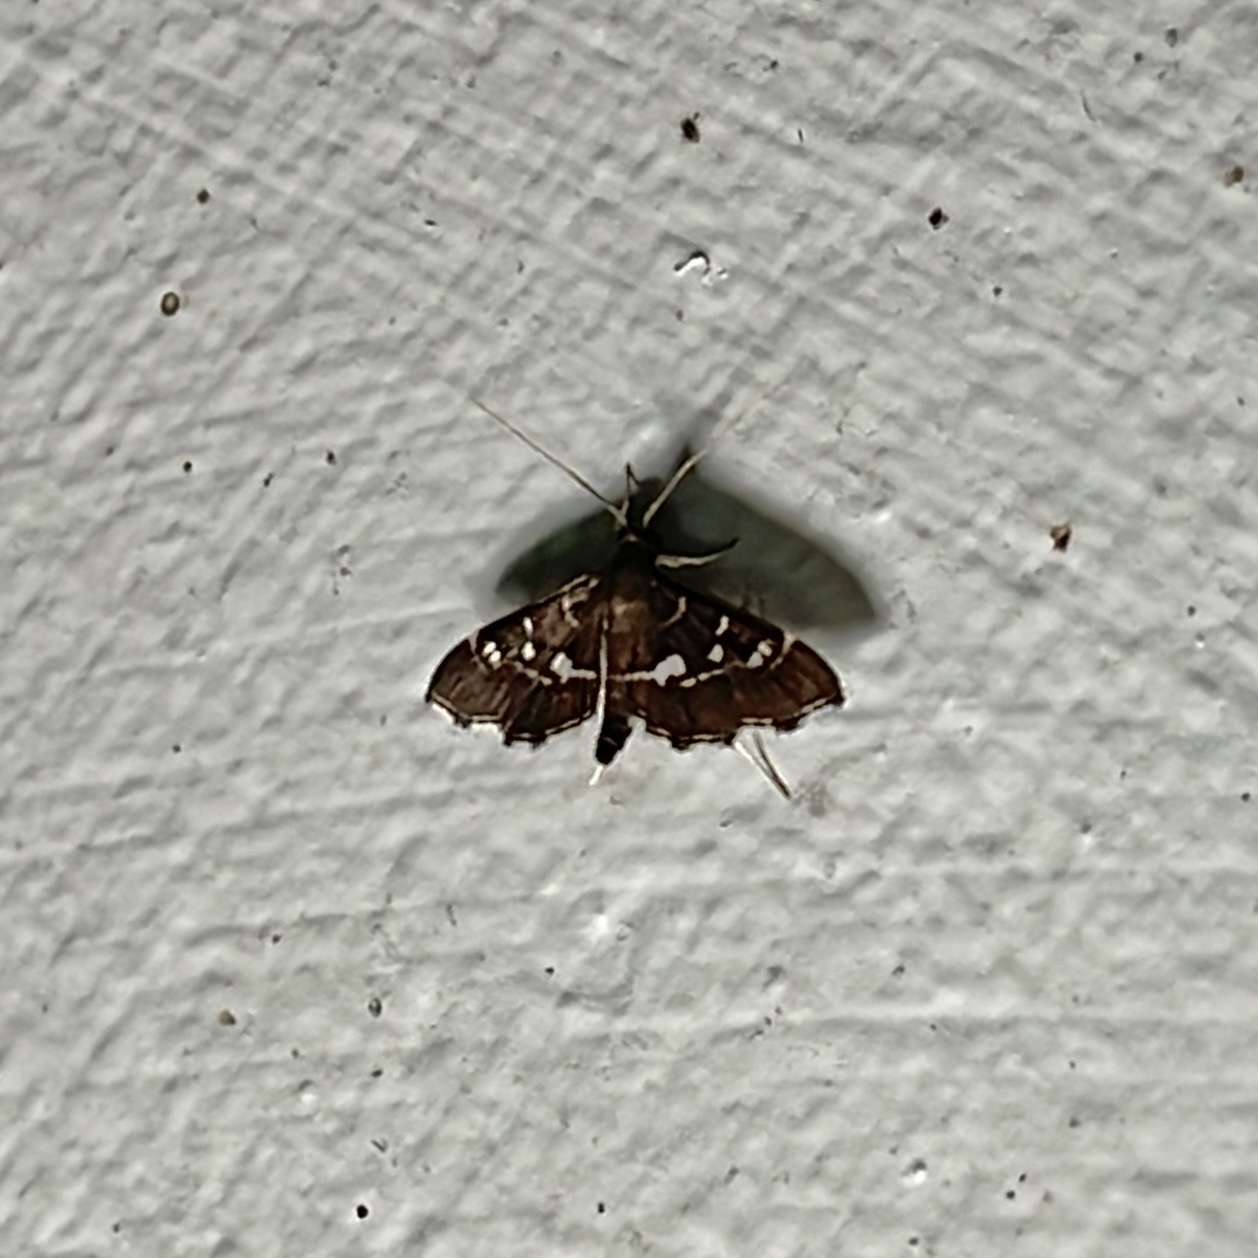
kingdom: Animalia
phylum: Arthropoda
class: Insecta
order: Lepidoptera
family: Crambidae
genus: Diathrausta
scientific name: Diathrausta nerinalis
